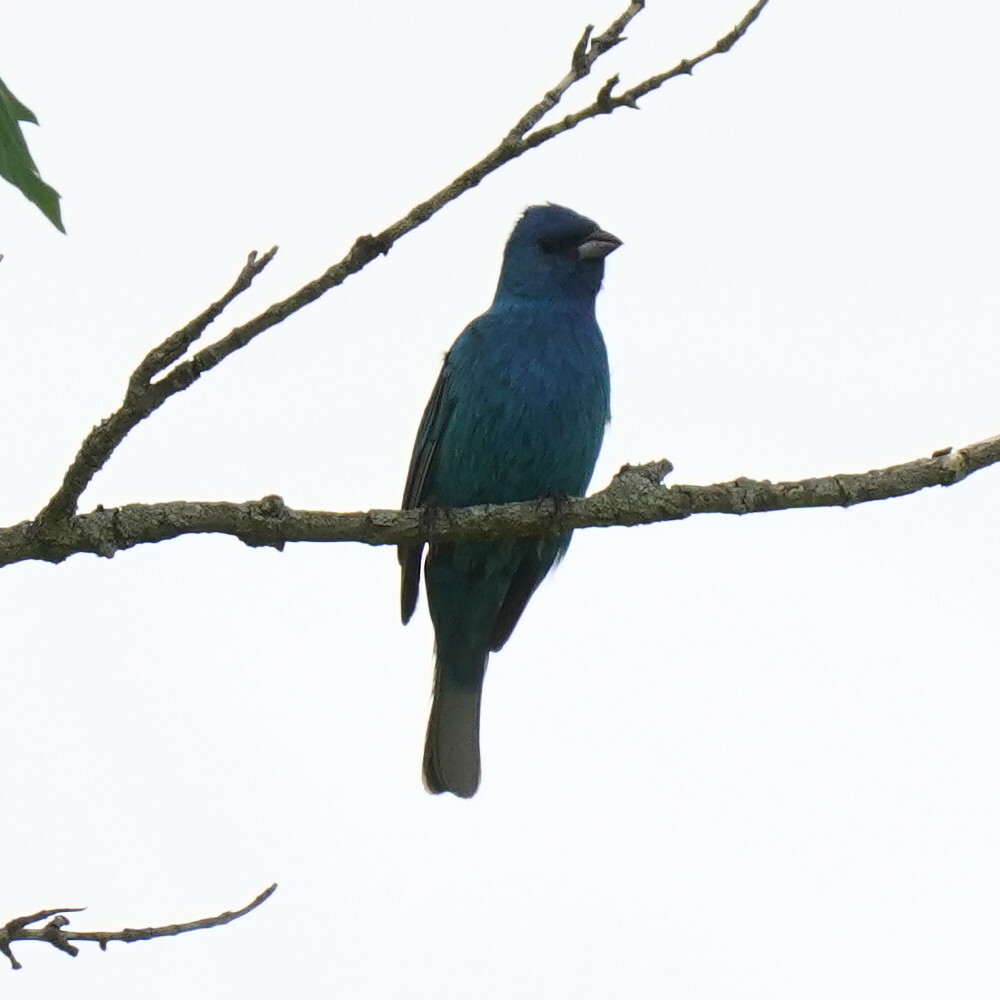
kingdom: Animalia
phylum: Chordata
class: Aves
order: Passeriformes
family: Cardinalidae
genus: Passerina
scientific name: Passerina cyanea
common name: Indigo bunting
